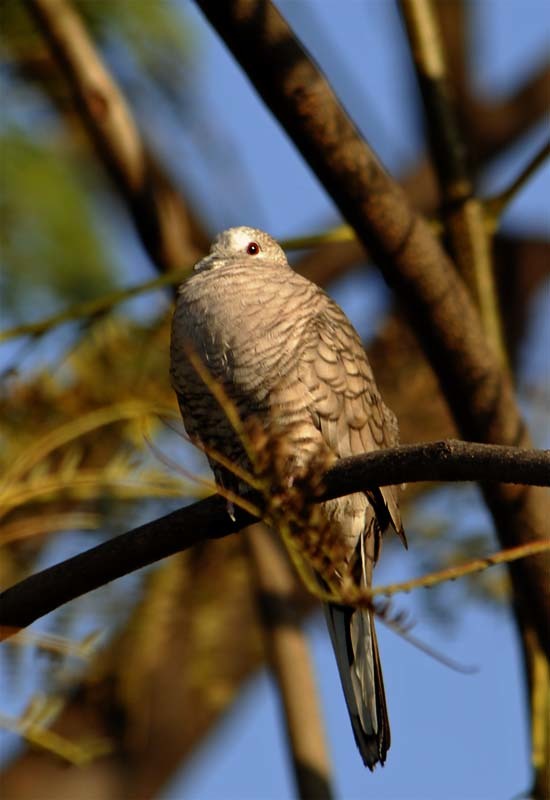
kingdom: Animalia
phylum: Chordata
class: Aves
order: Columbiformes
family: Columbidae
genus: Columbina
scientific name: Columbina inca
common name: Inca dove
